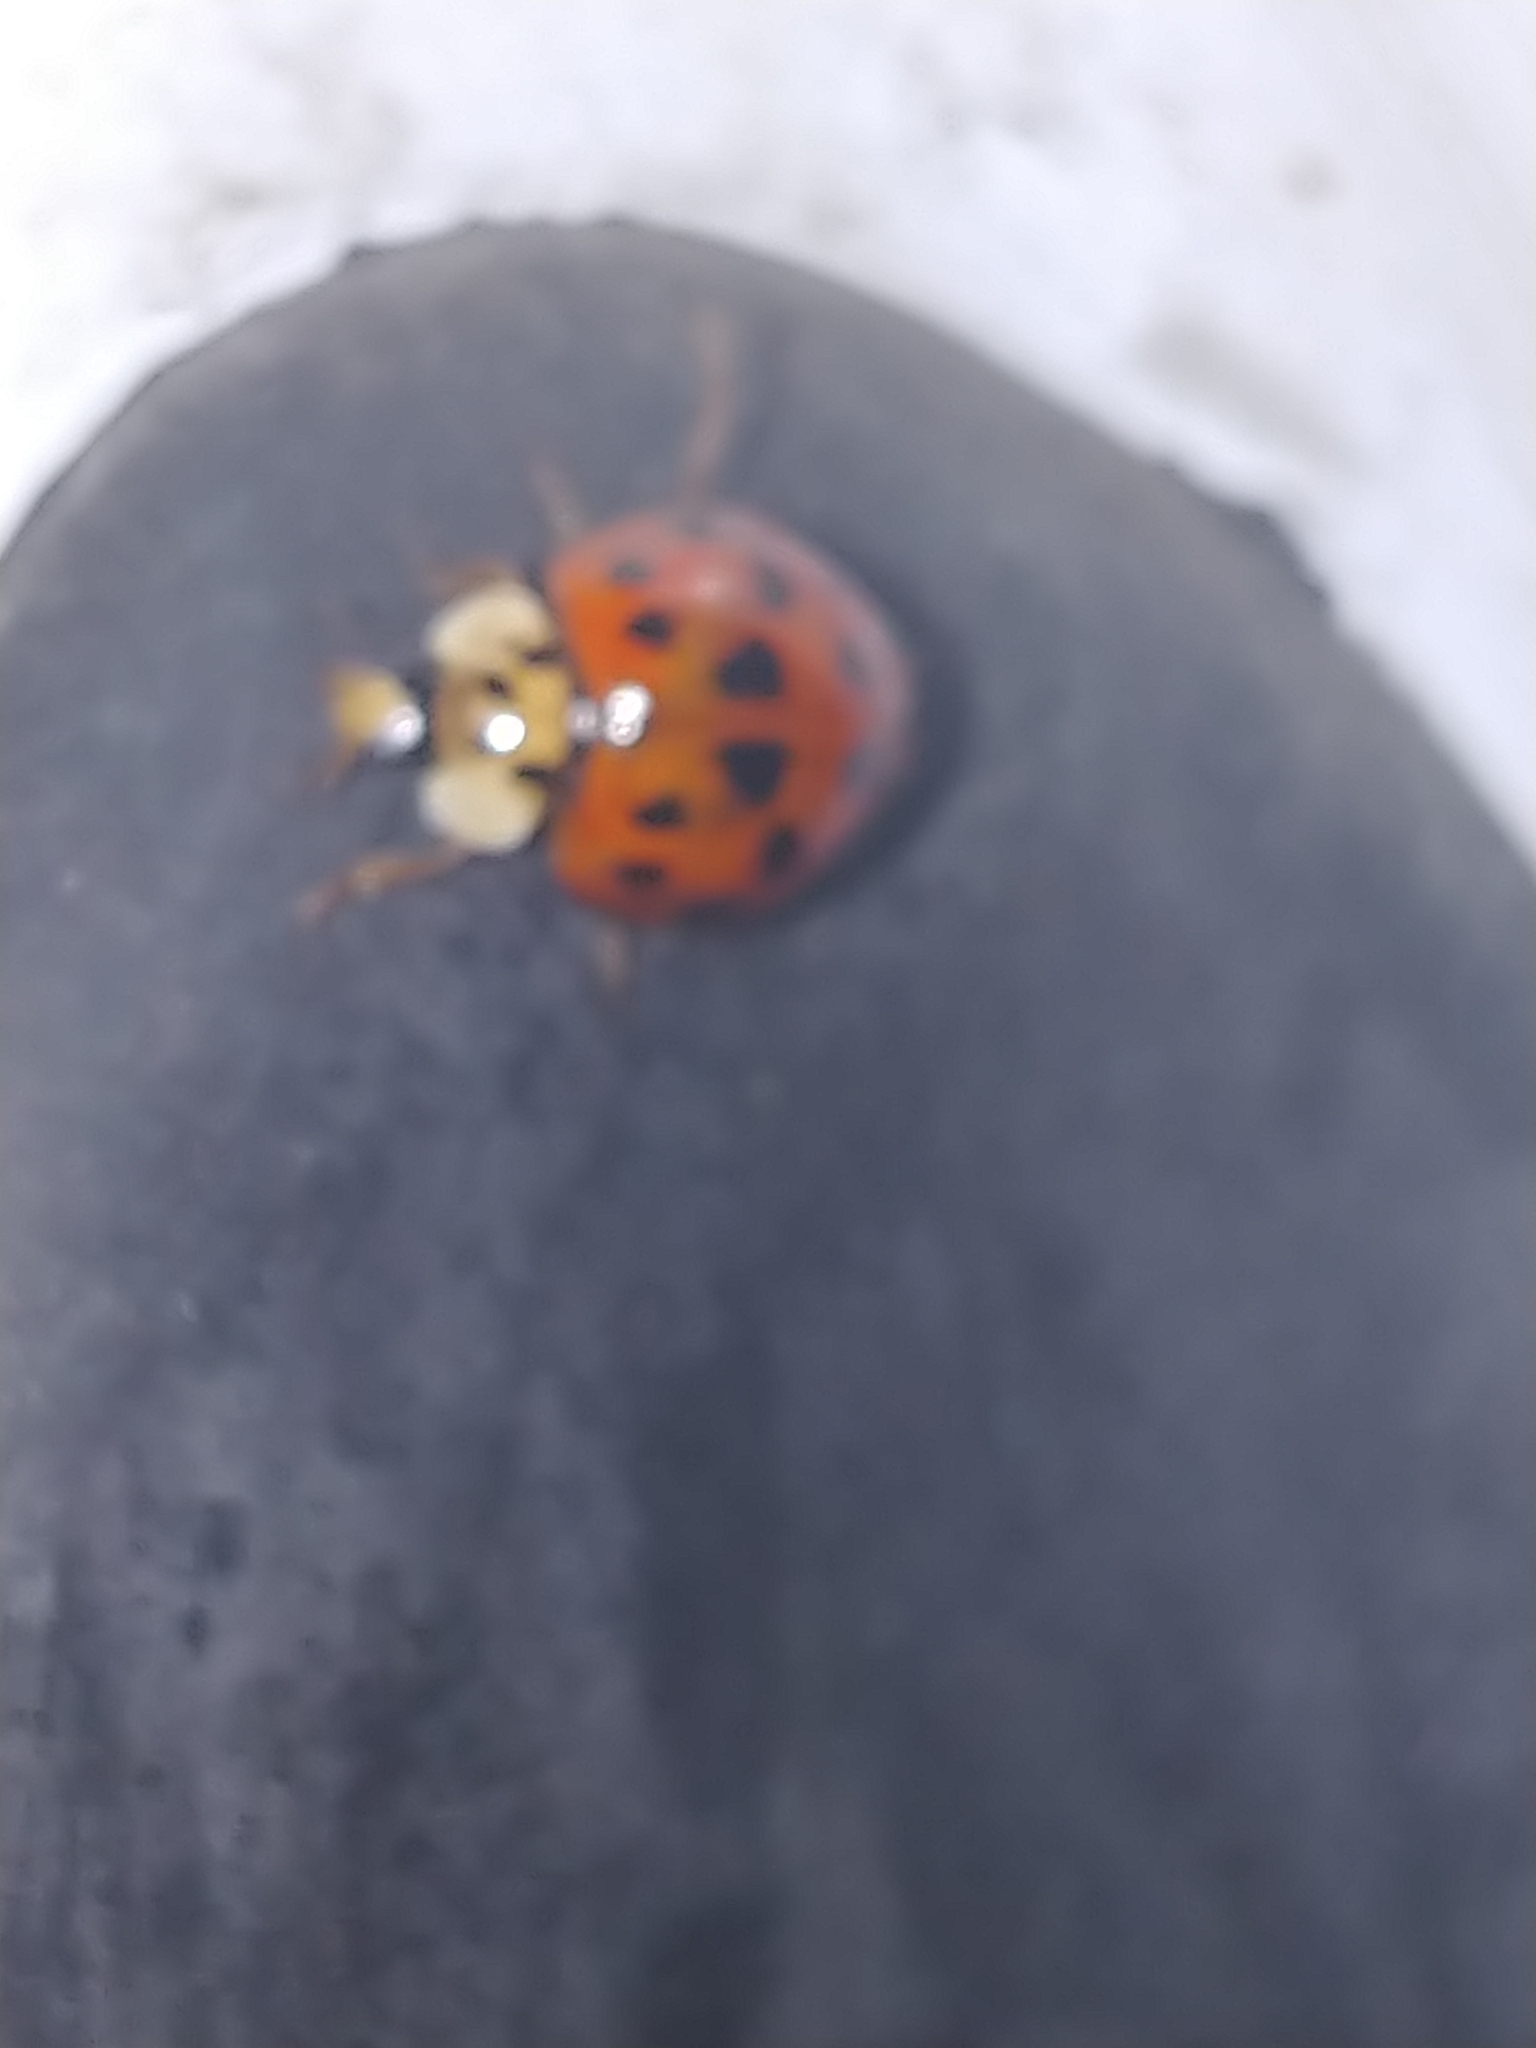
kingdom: Animalia
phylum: Arthropoda
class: Insecta
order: Coleoptera
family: Coccinellidae
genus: Harmonia
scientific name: Harmonia axyridis
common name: Harlequin ladybird
